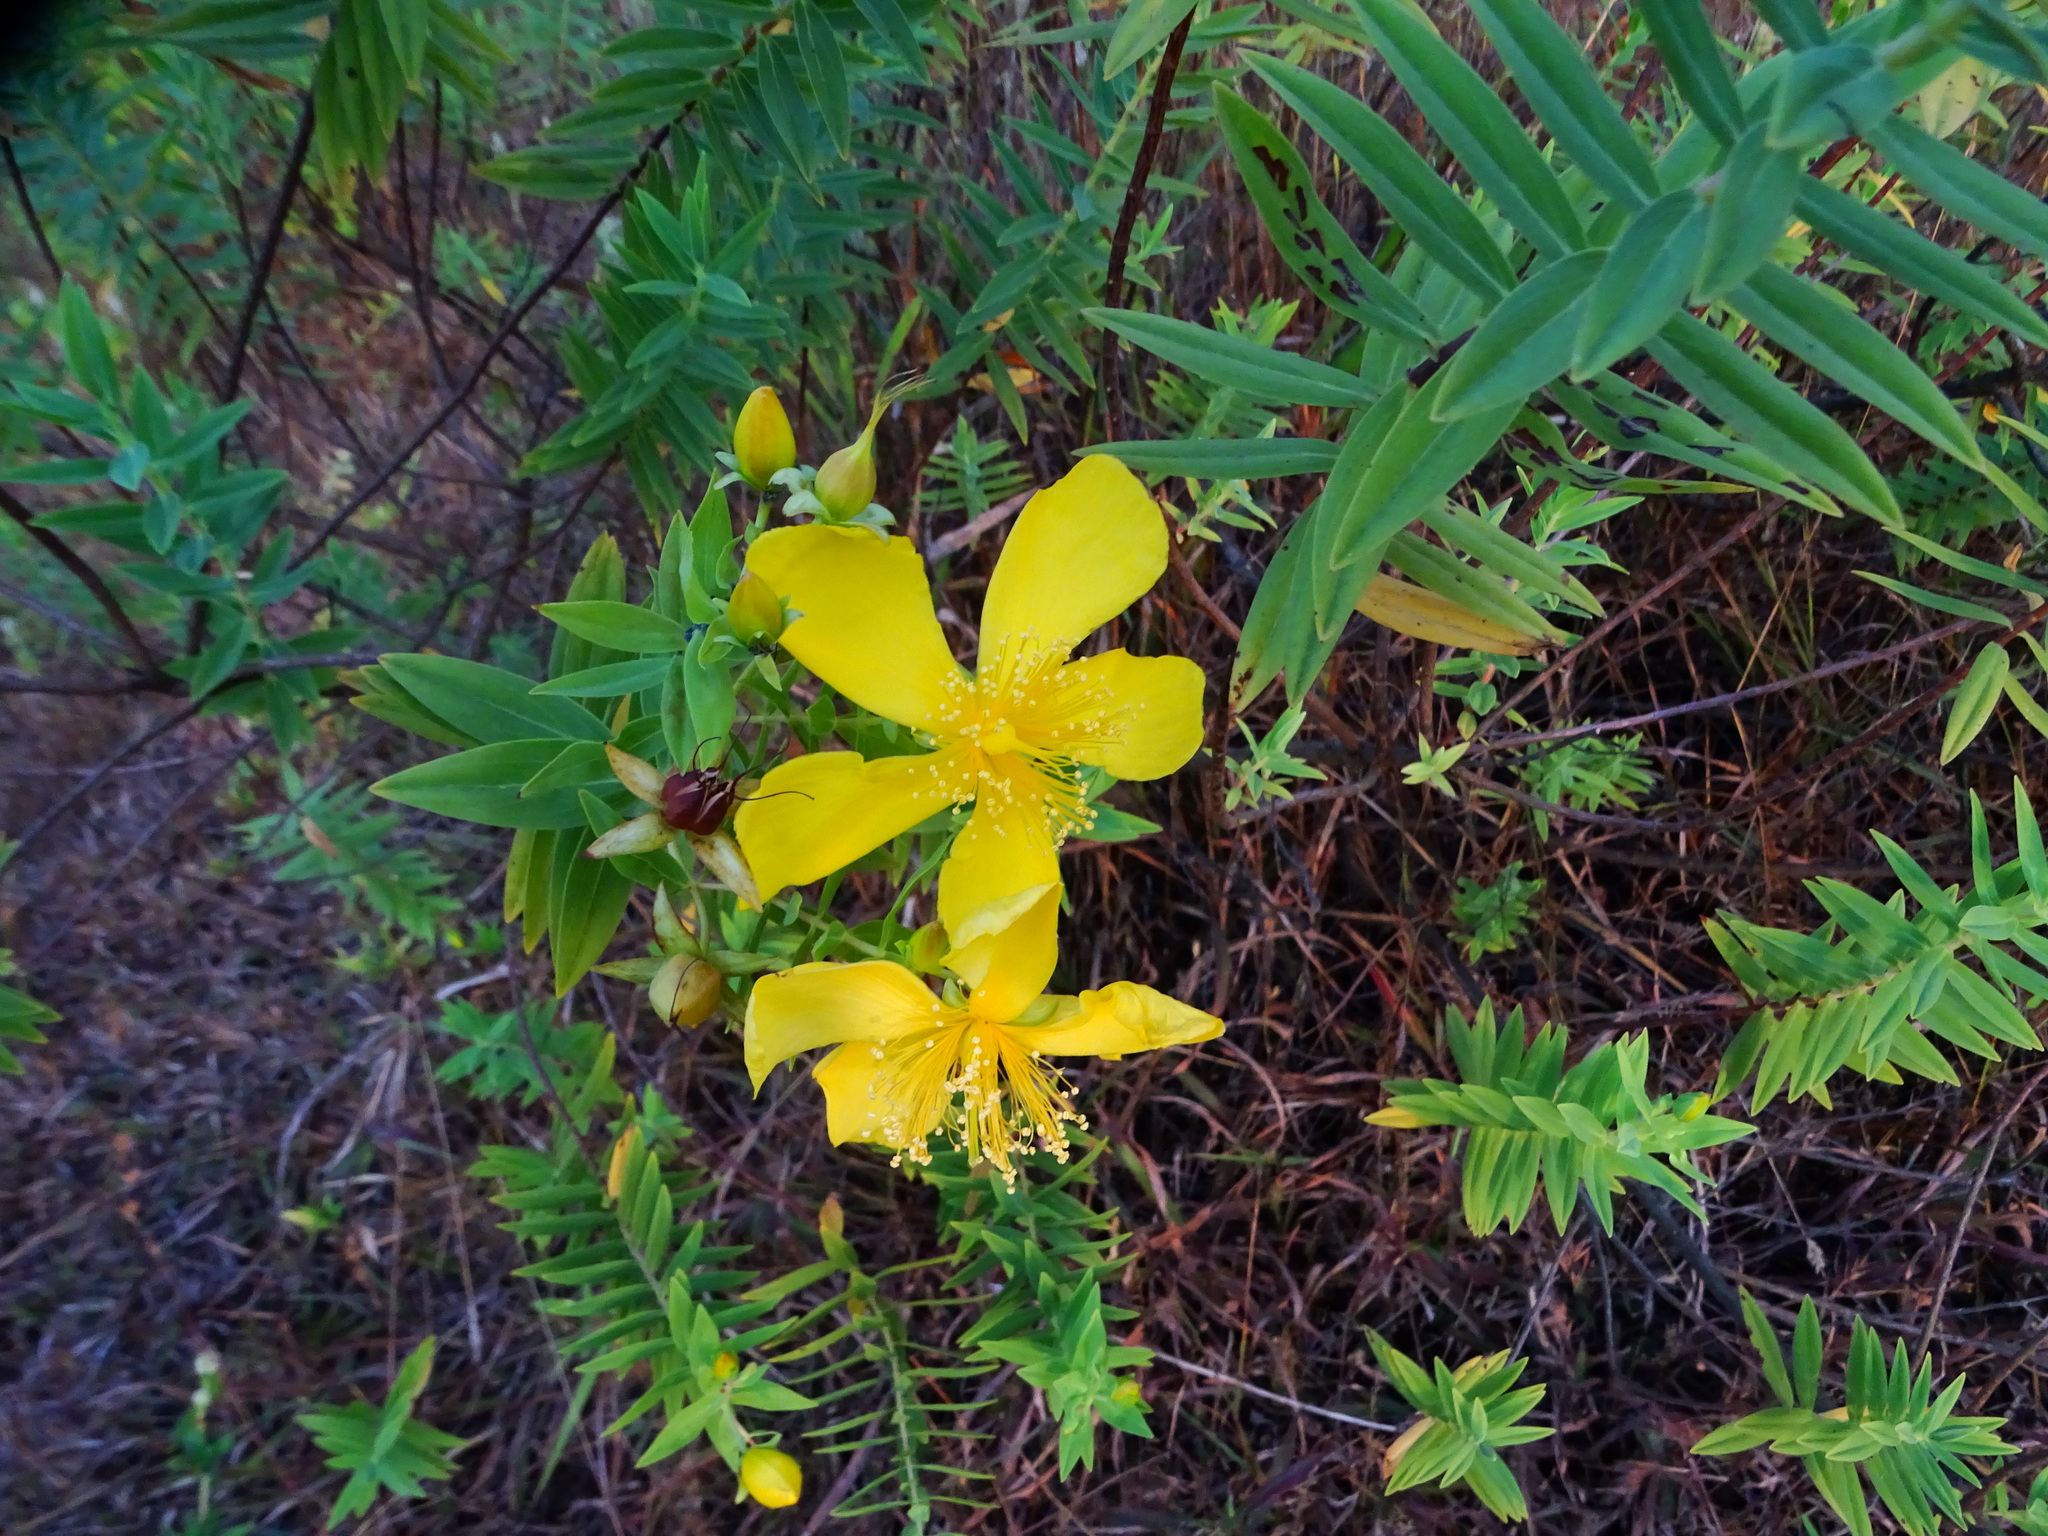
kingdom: Plantae
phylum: Tracheophyta
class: Magnoliopsida
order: Malpighiales
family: Hypericaceae
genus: Hypericum
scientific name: Hypericum mysurense
